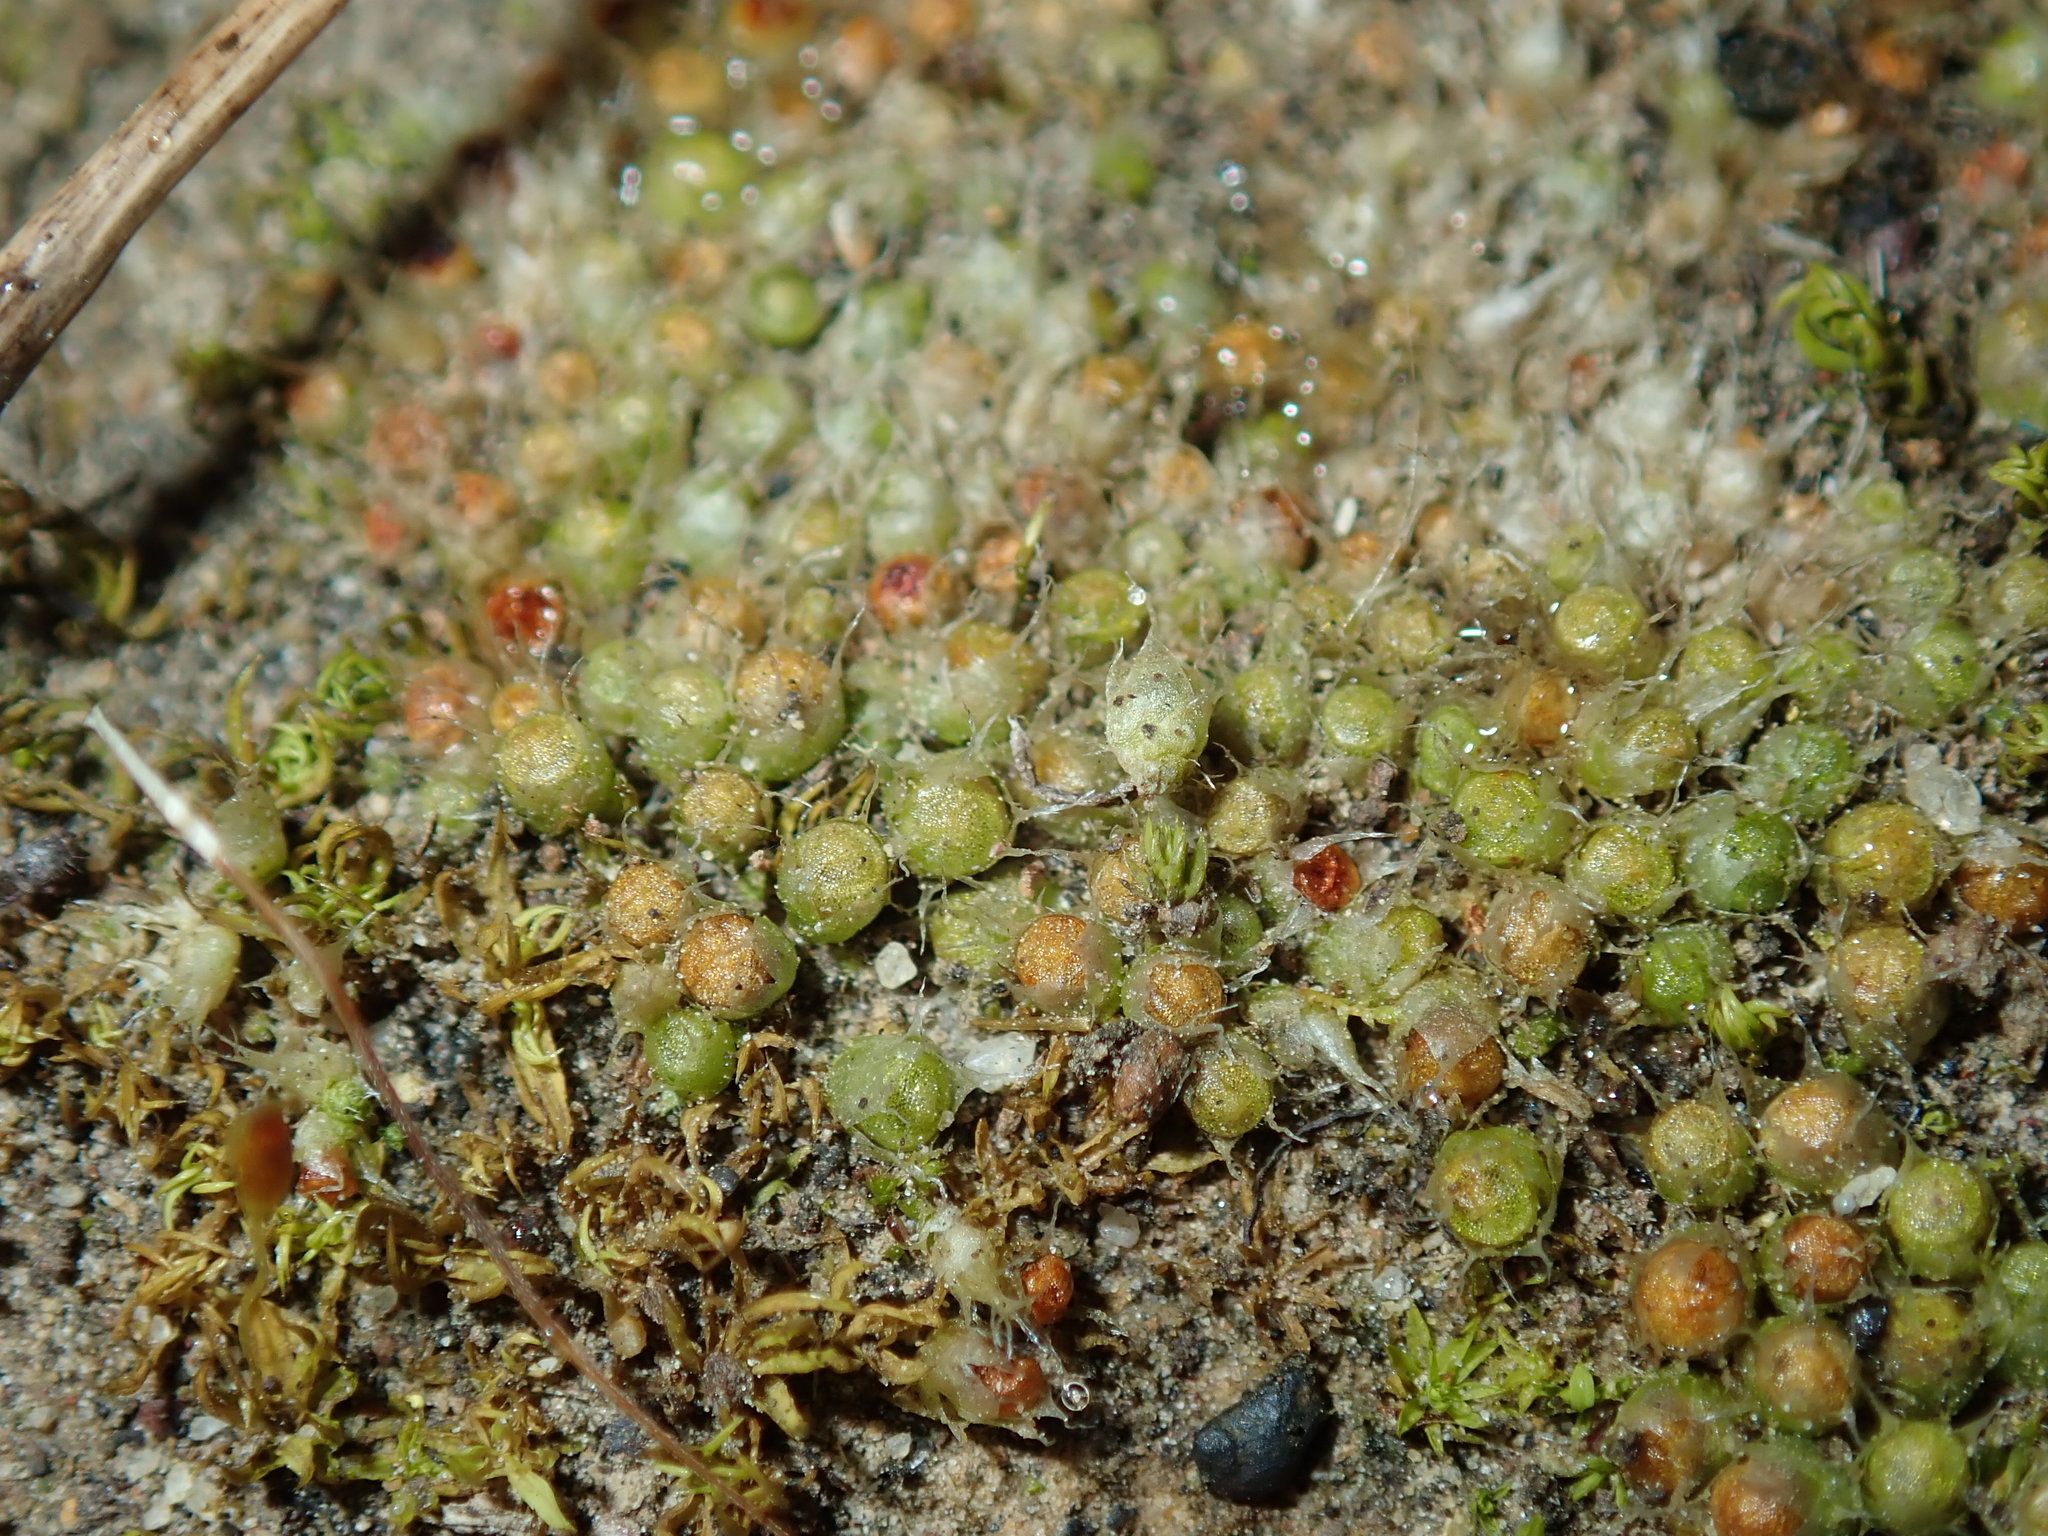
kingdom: Plantae
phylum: Bryophyta
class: Bryopsida
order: Gigaspermales
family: Gigaspermaceae
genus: Gigaspermum
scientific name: Gigaspermum repens
